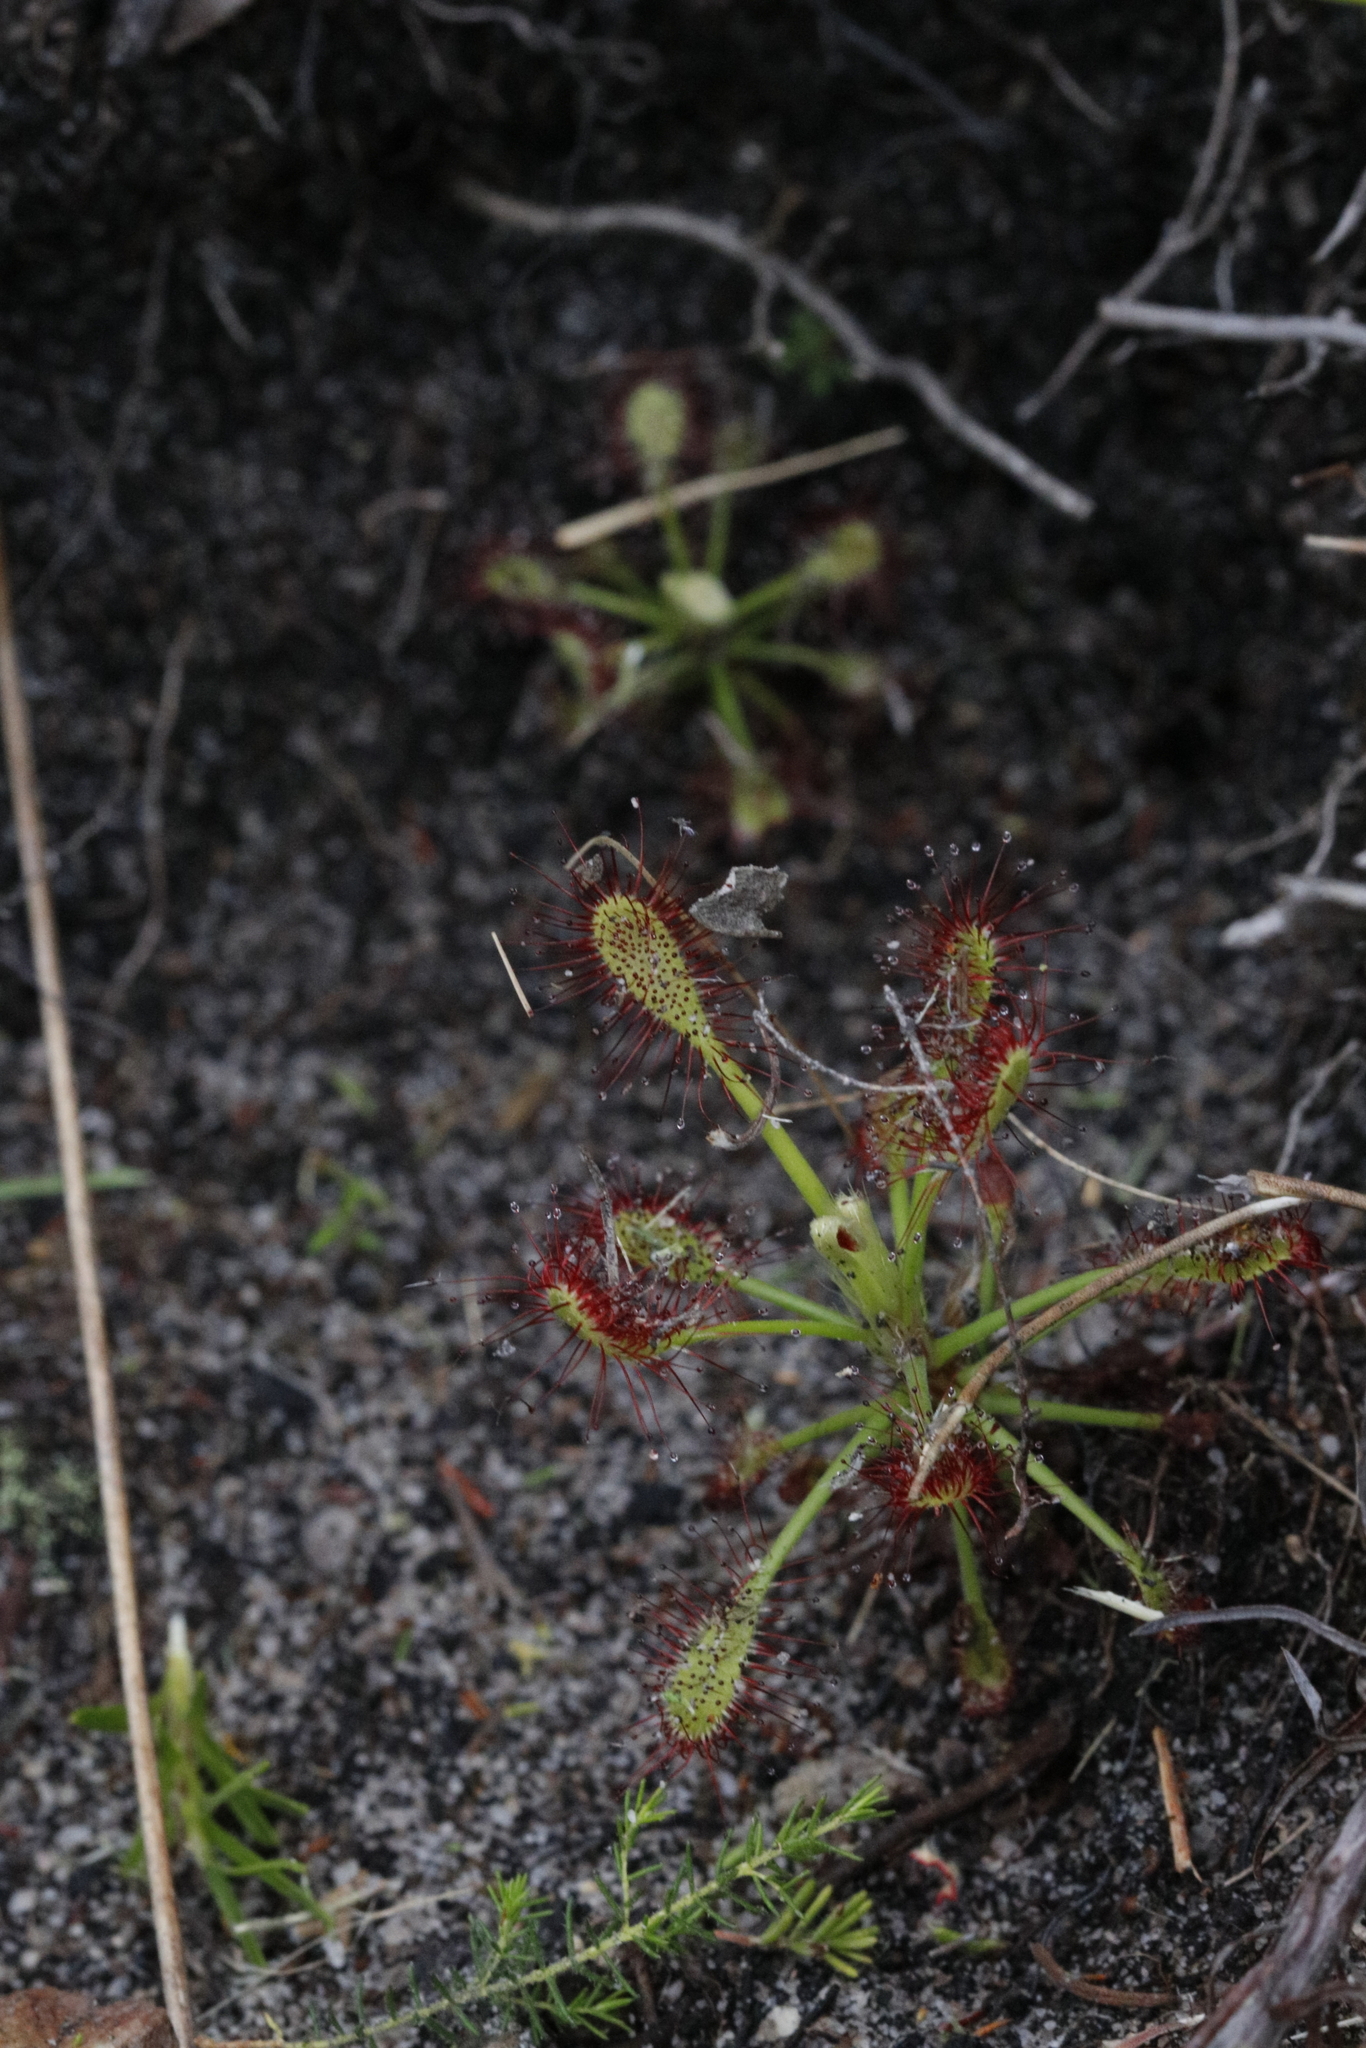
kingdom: Plantae
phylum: Tracheophyta
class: Magnoliopsida
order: Caryophyllales
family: Droseraceae
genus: Drosera
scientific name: Drosera glabripes
